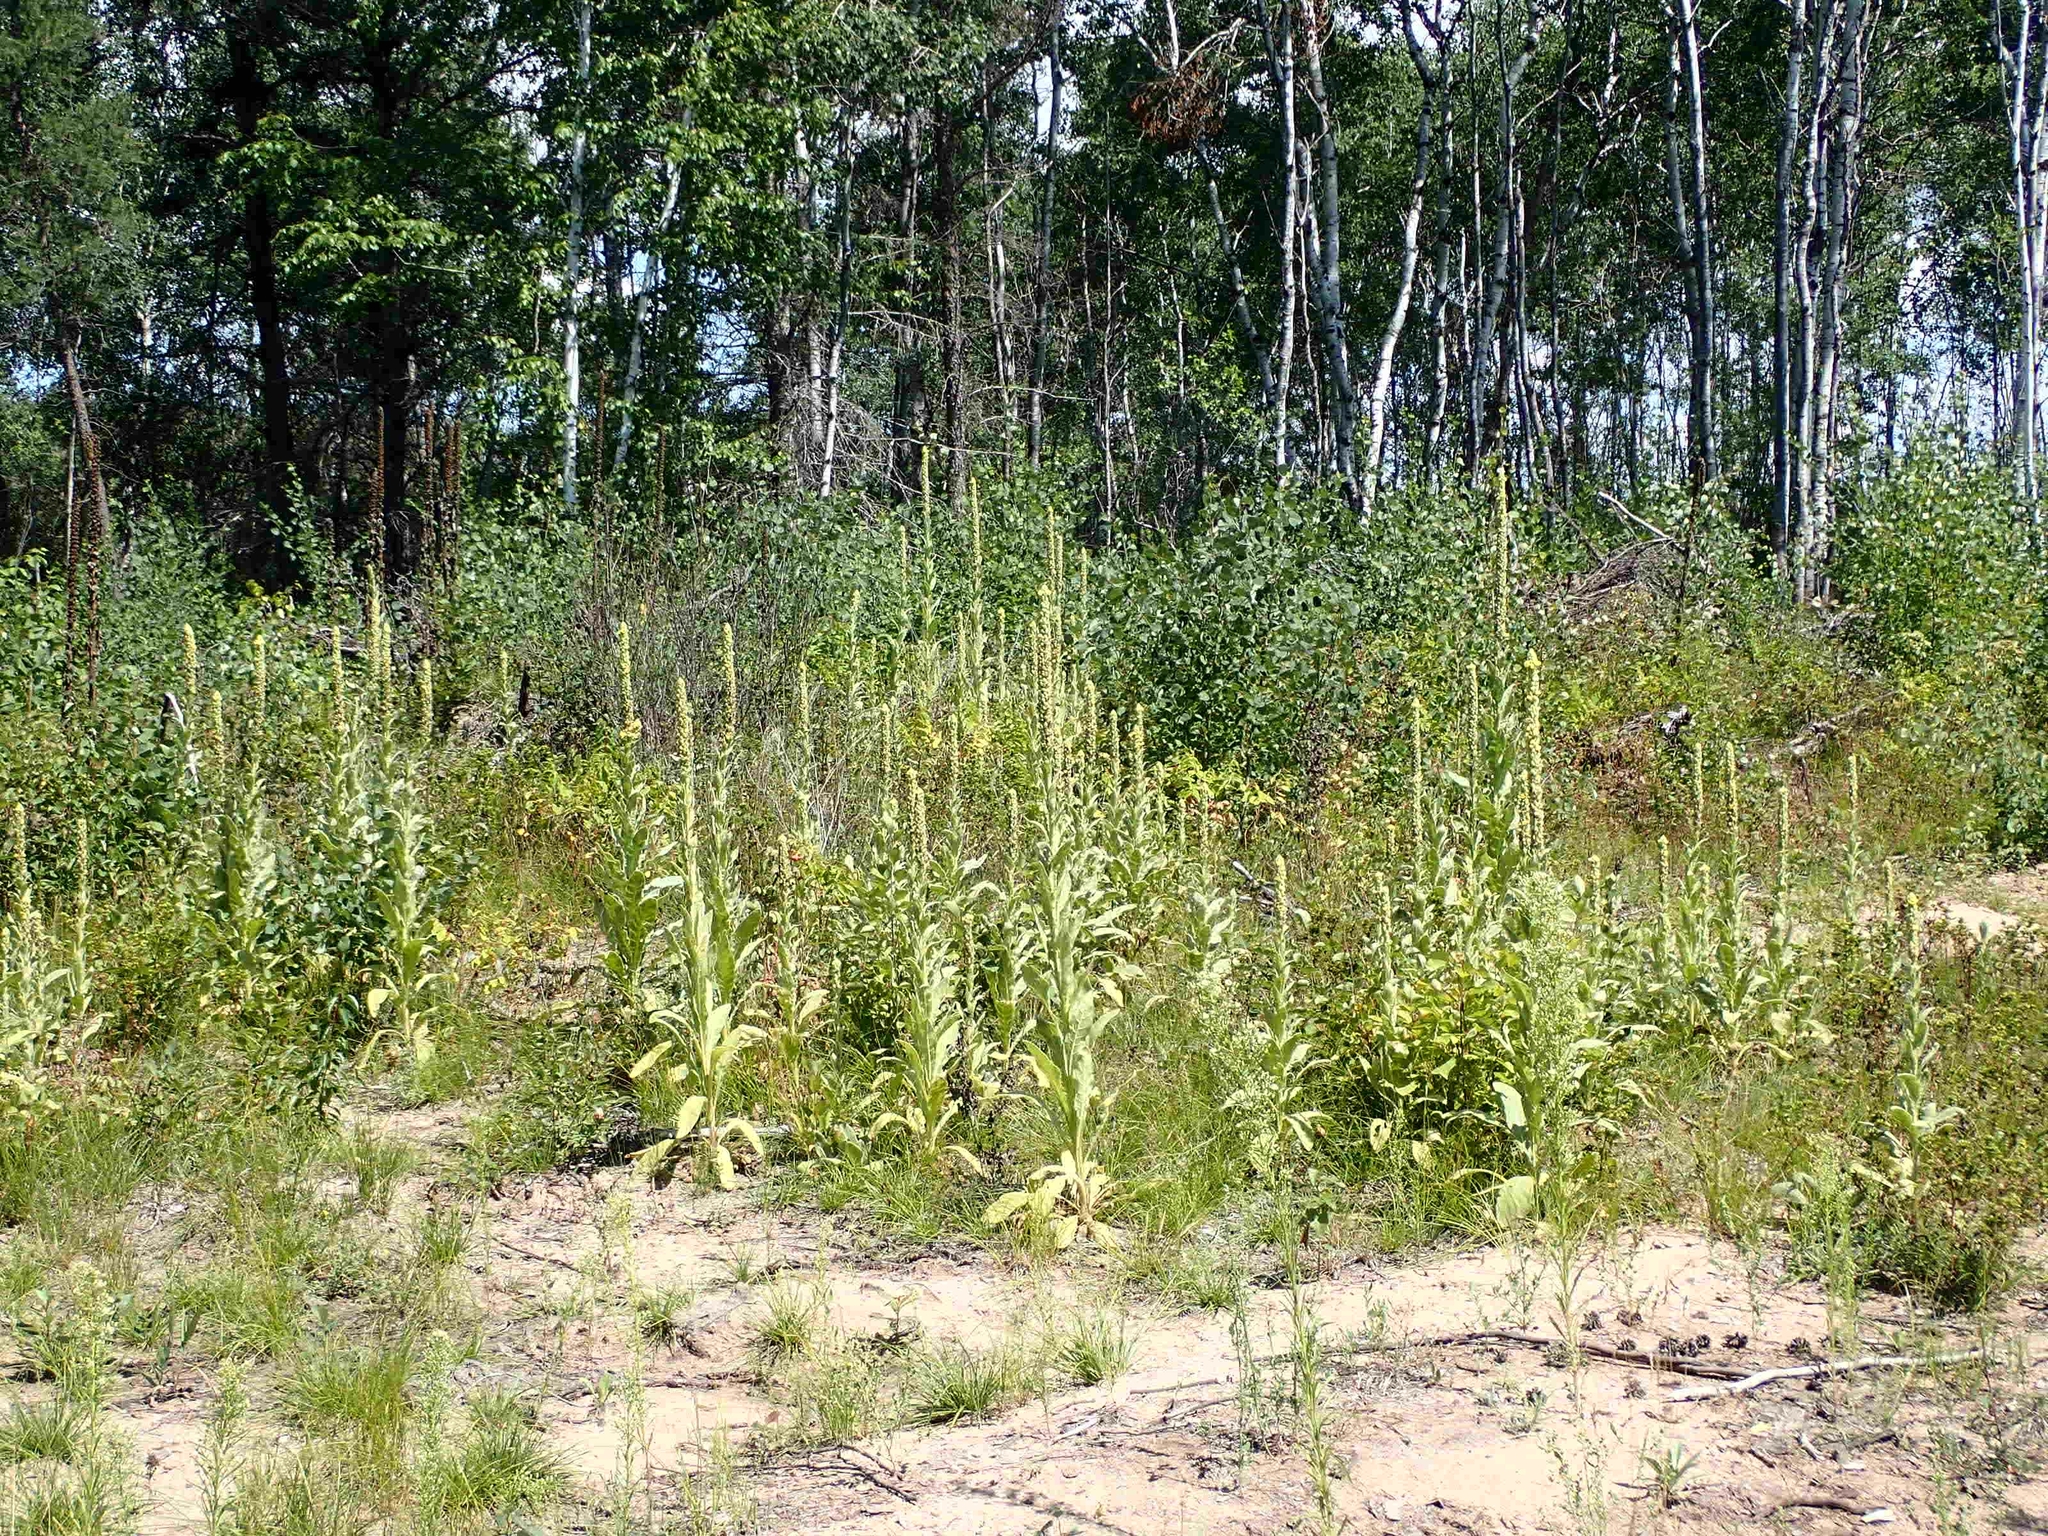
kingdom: Plantae
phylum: Tracheophyta
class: Magnoliopsida
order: Lamiales
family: Scrophulariaceae
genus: Verbascum
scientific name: Verbascum thapsus
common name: Common mullein
